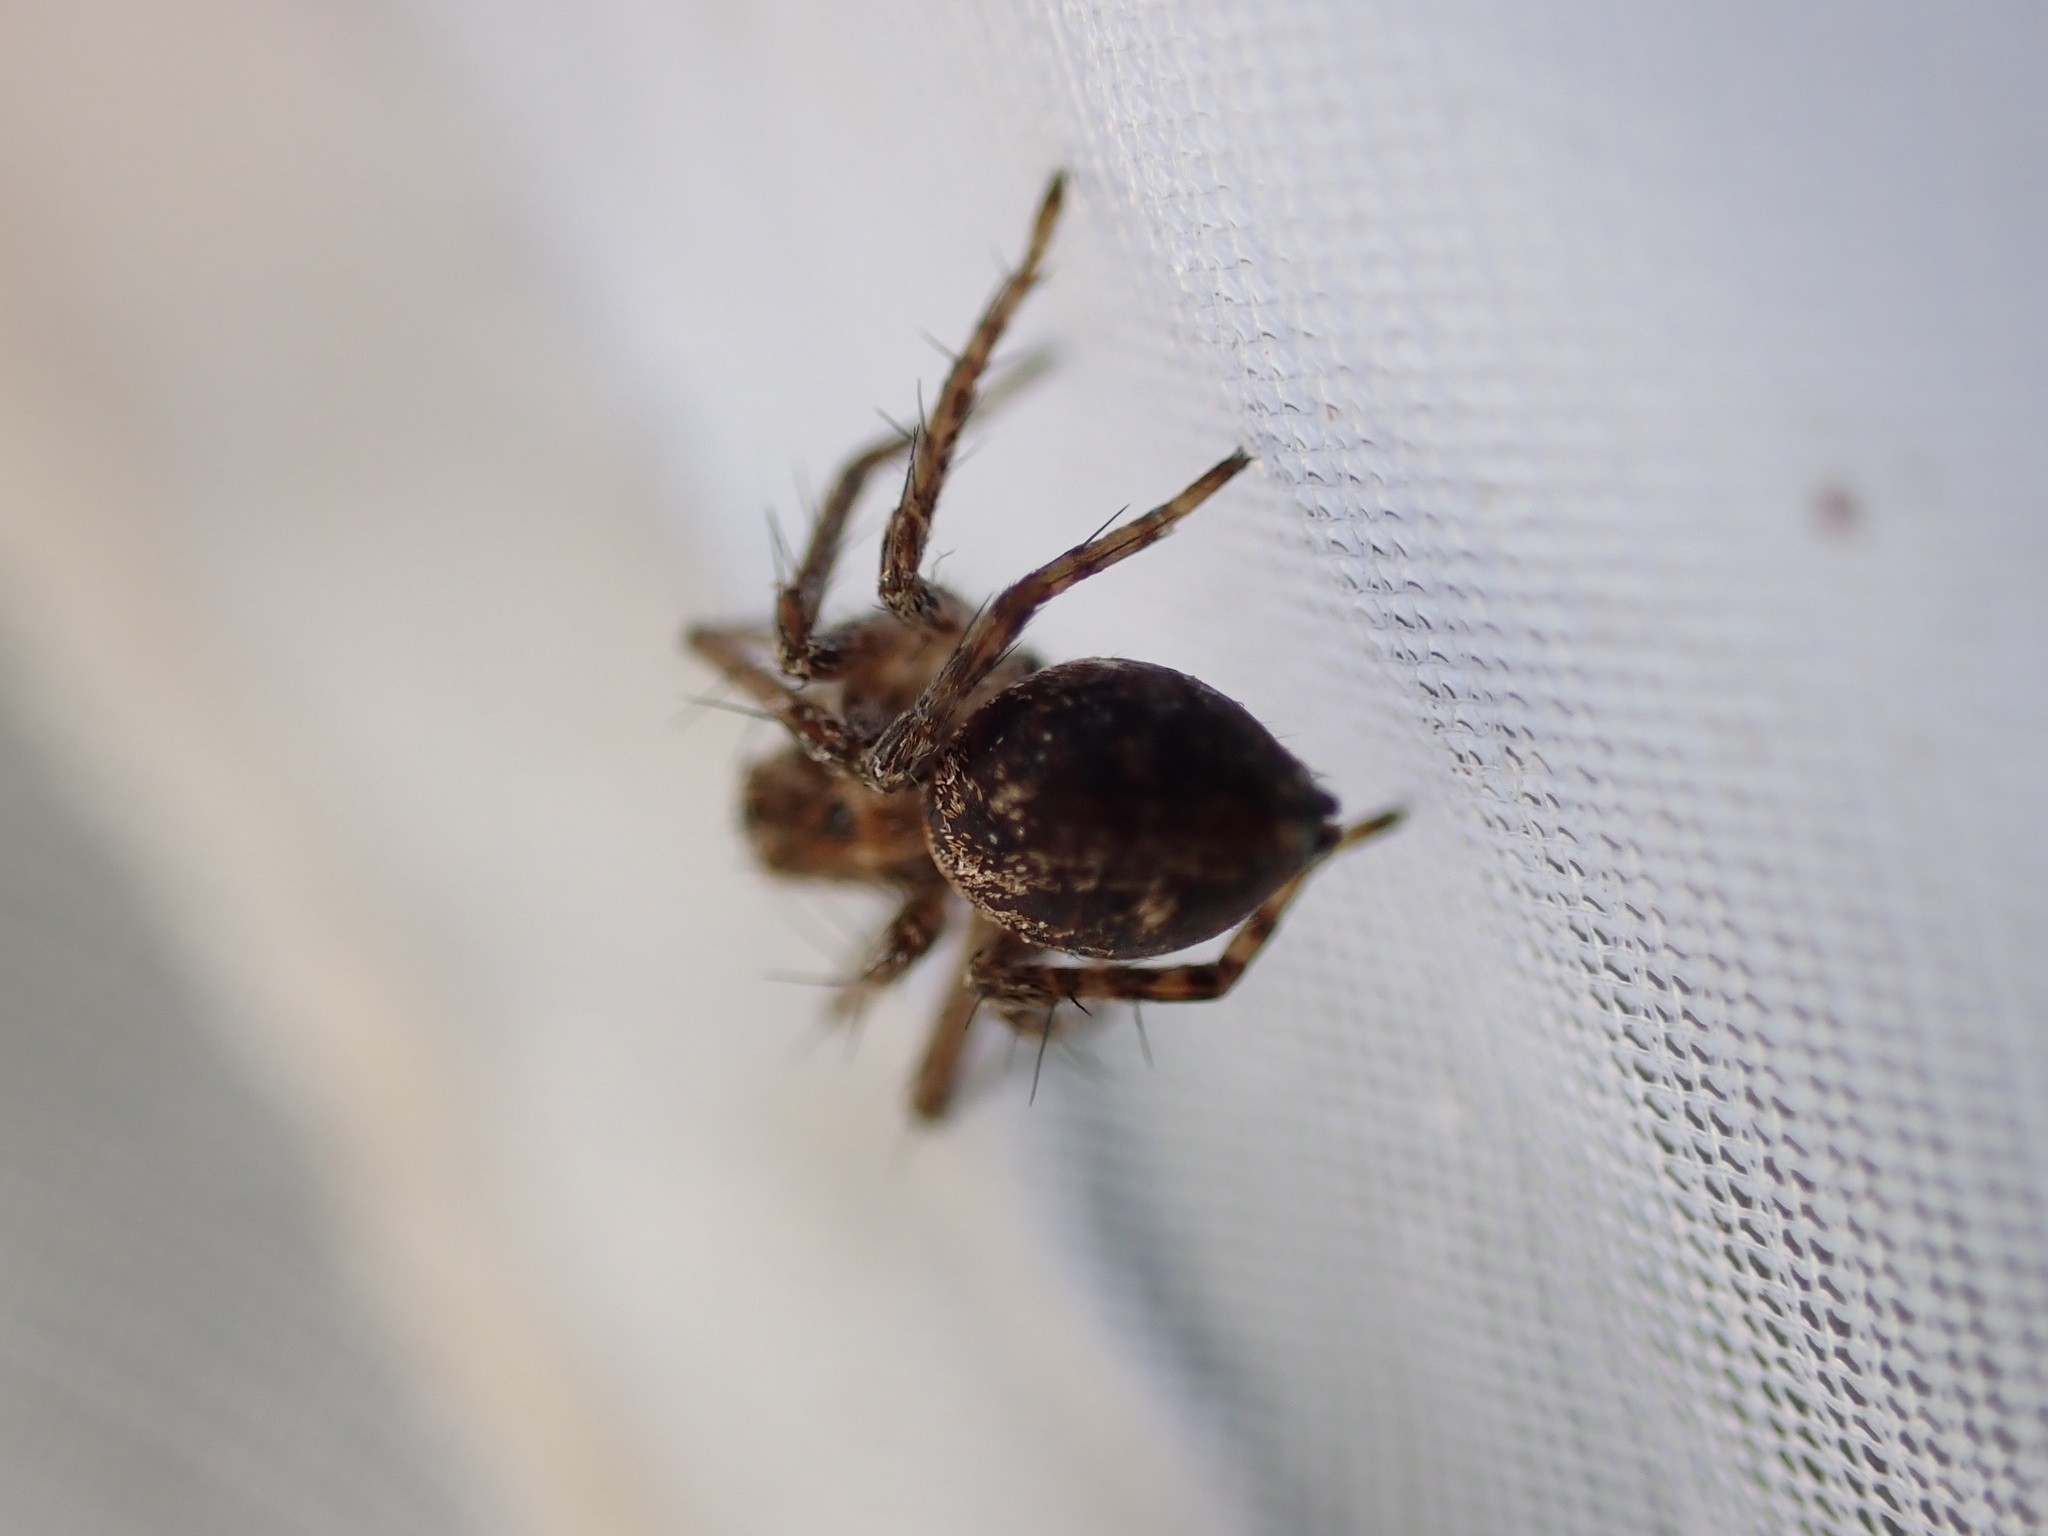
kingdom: Animalia
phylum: Arthropoda
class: Arachnida
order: Araneae
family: Oxyopidae
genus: Oxyopes
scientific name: Oxyopes
